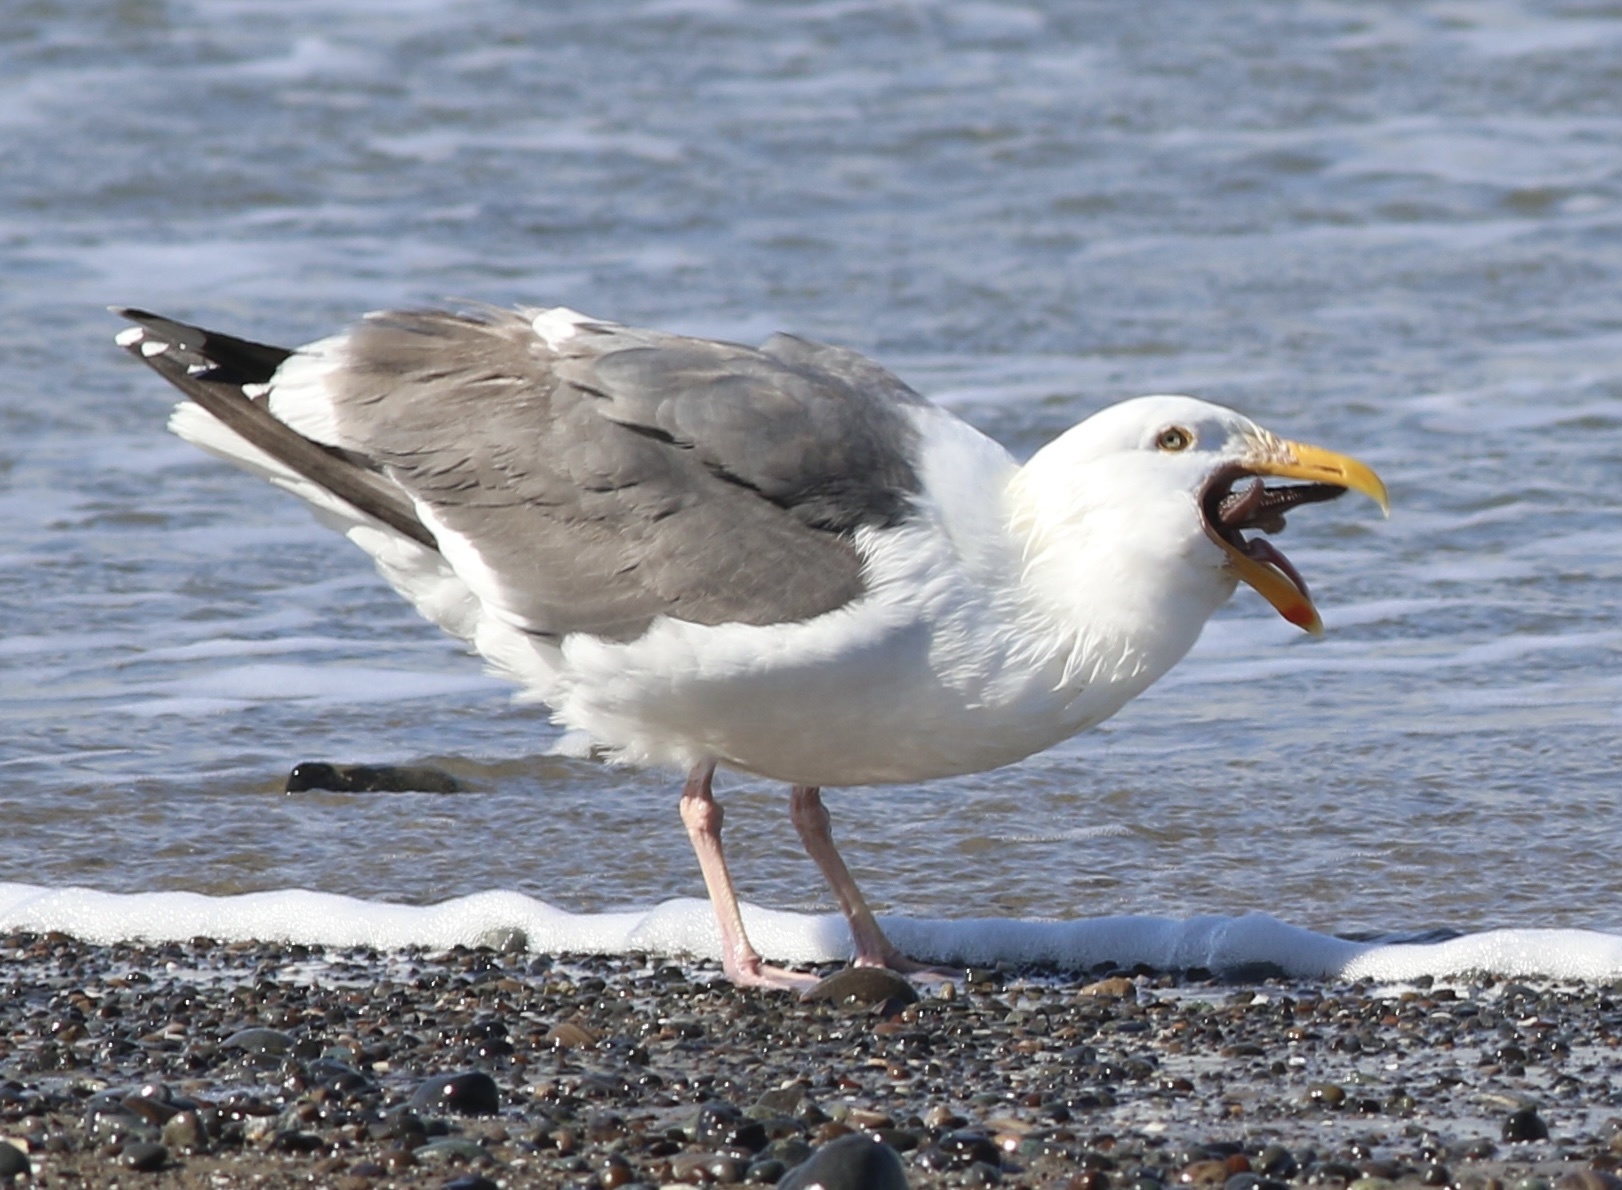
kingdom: Animalia
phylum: Echinodermata
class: Asteroidea
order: Forcipulatida
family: Asteriidae
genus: Pisaster
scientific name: Pisaster ochraceus
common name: Ochre stars
